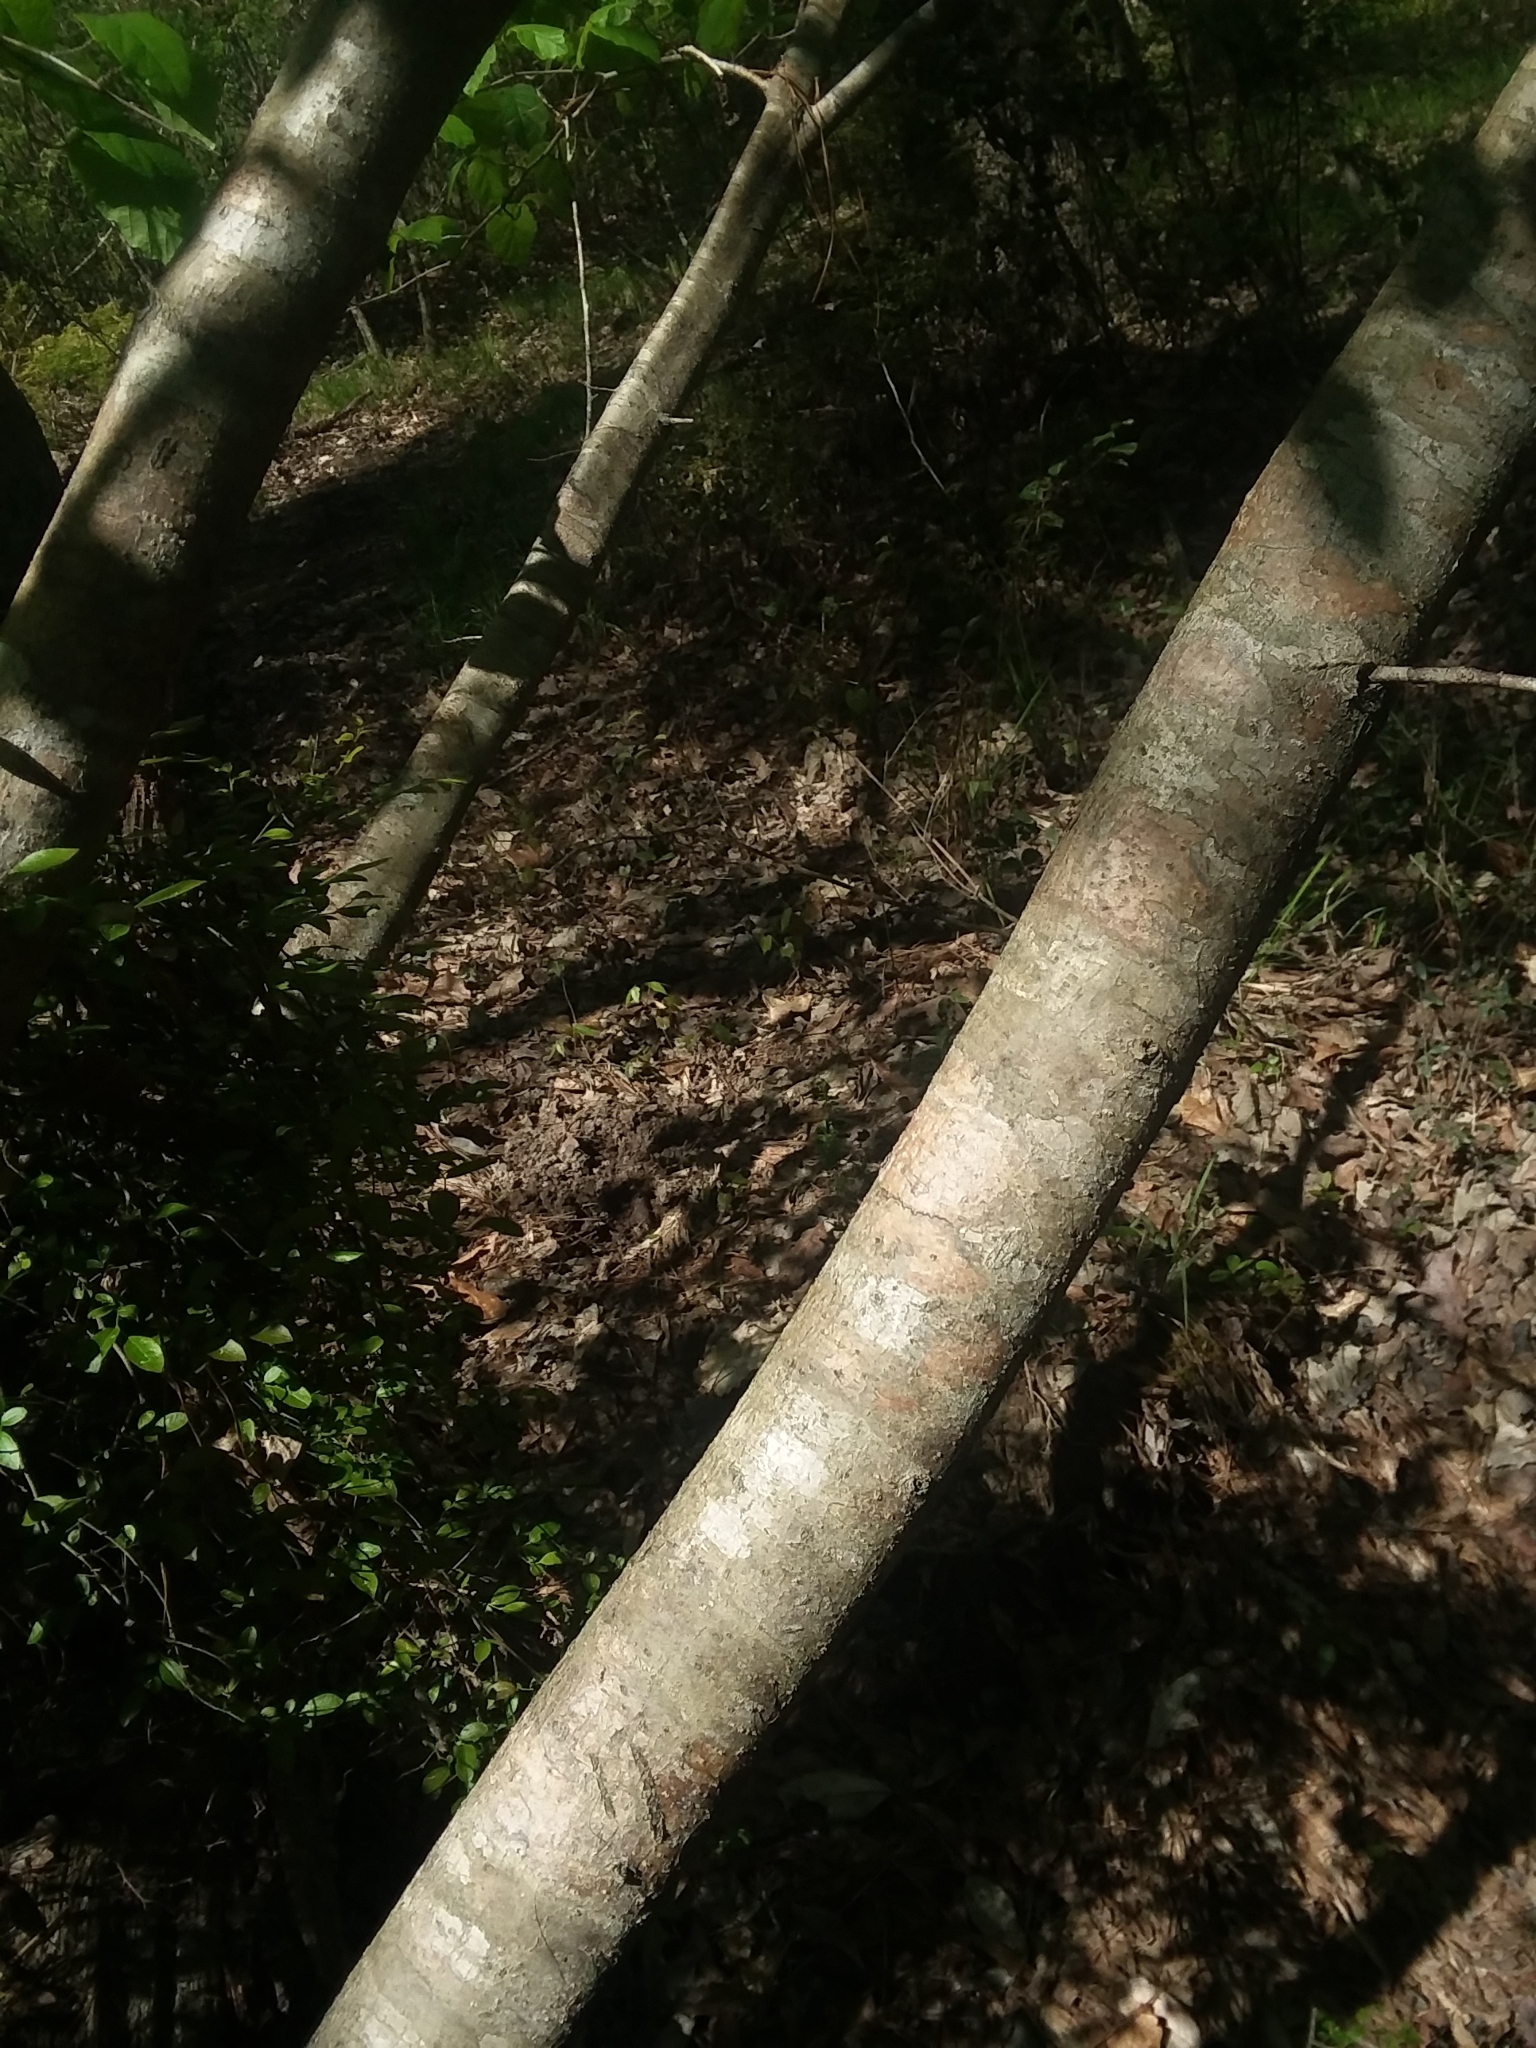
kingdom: Plantae
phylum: Tracheophyta
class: Magnoliopsida
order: Saxifragales
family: Hamamelidaceae
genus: Hamamelis
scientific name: Hamamelis virginiana
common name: Witch-hazel
